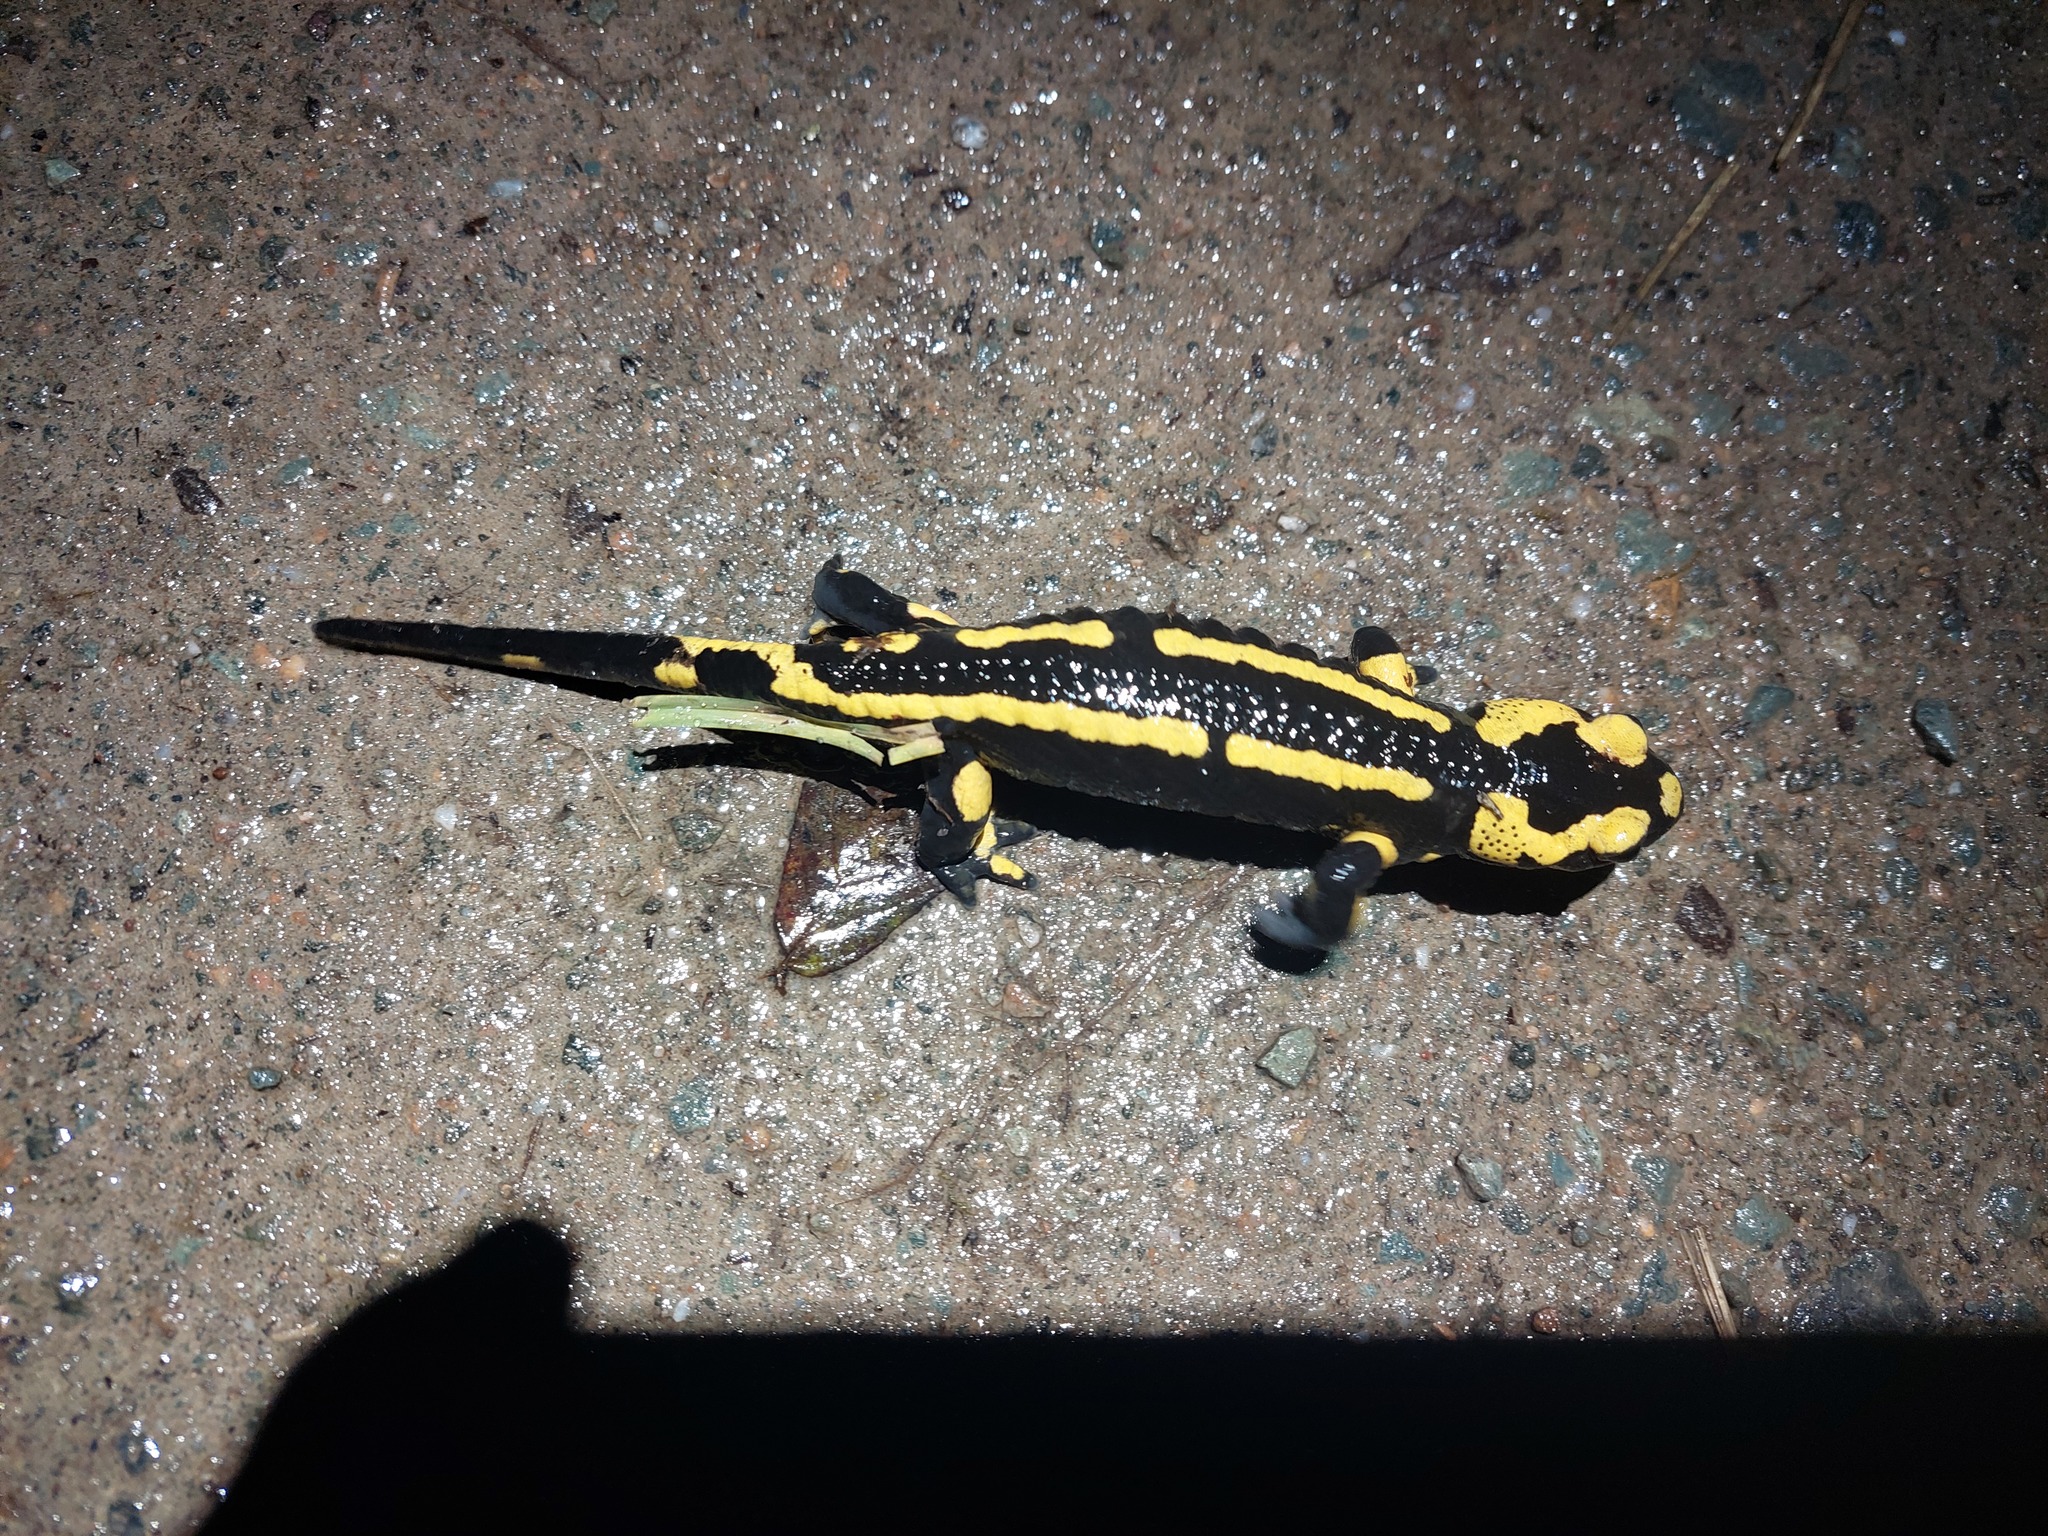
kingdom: Animalia
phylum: Chordata
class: Amphibia
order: Caudata
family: Salamandridae
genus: Salamandra
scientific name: Salamandra salamandra
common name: Fire salamander
